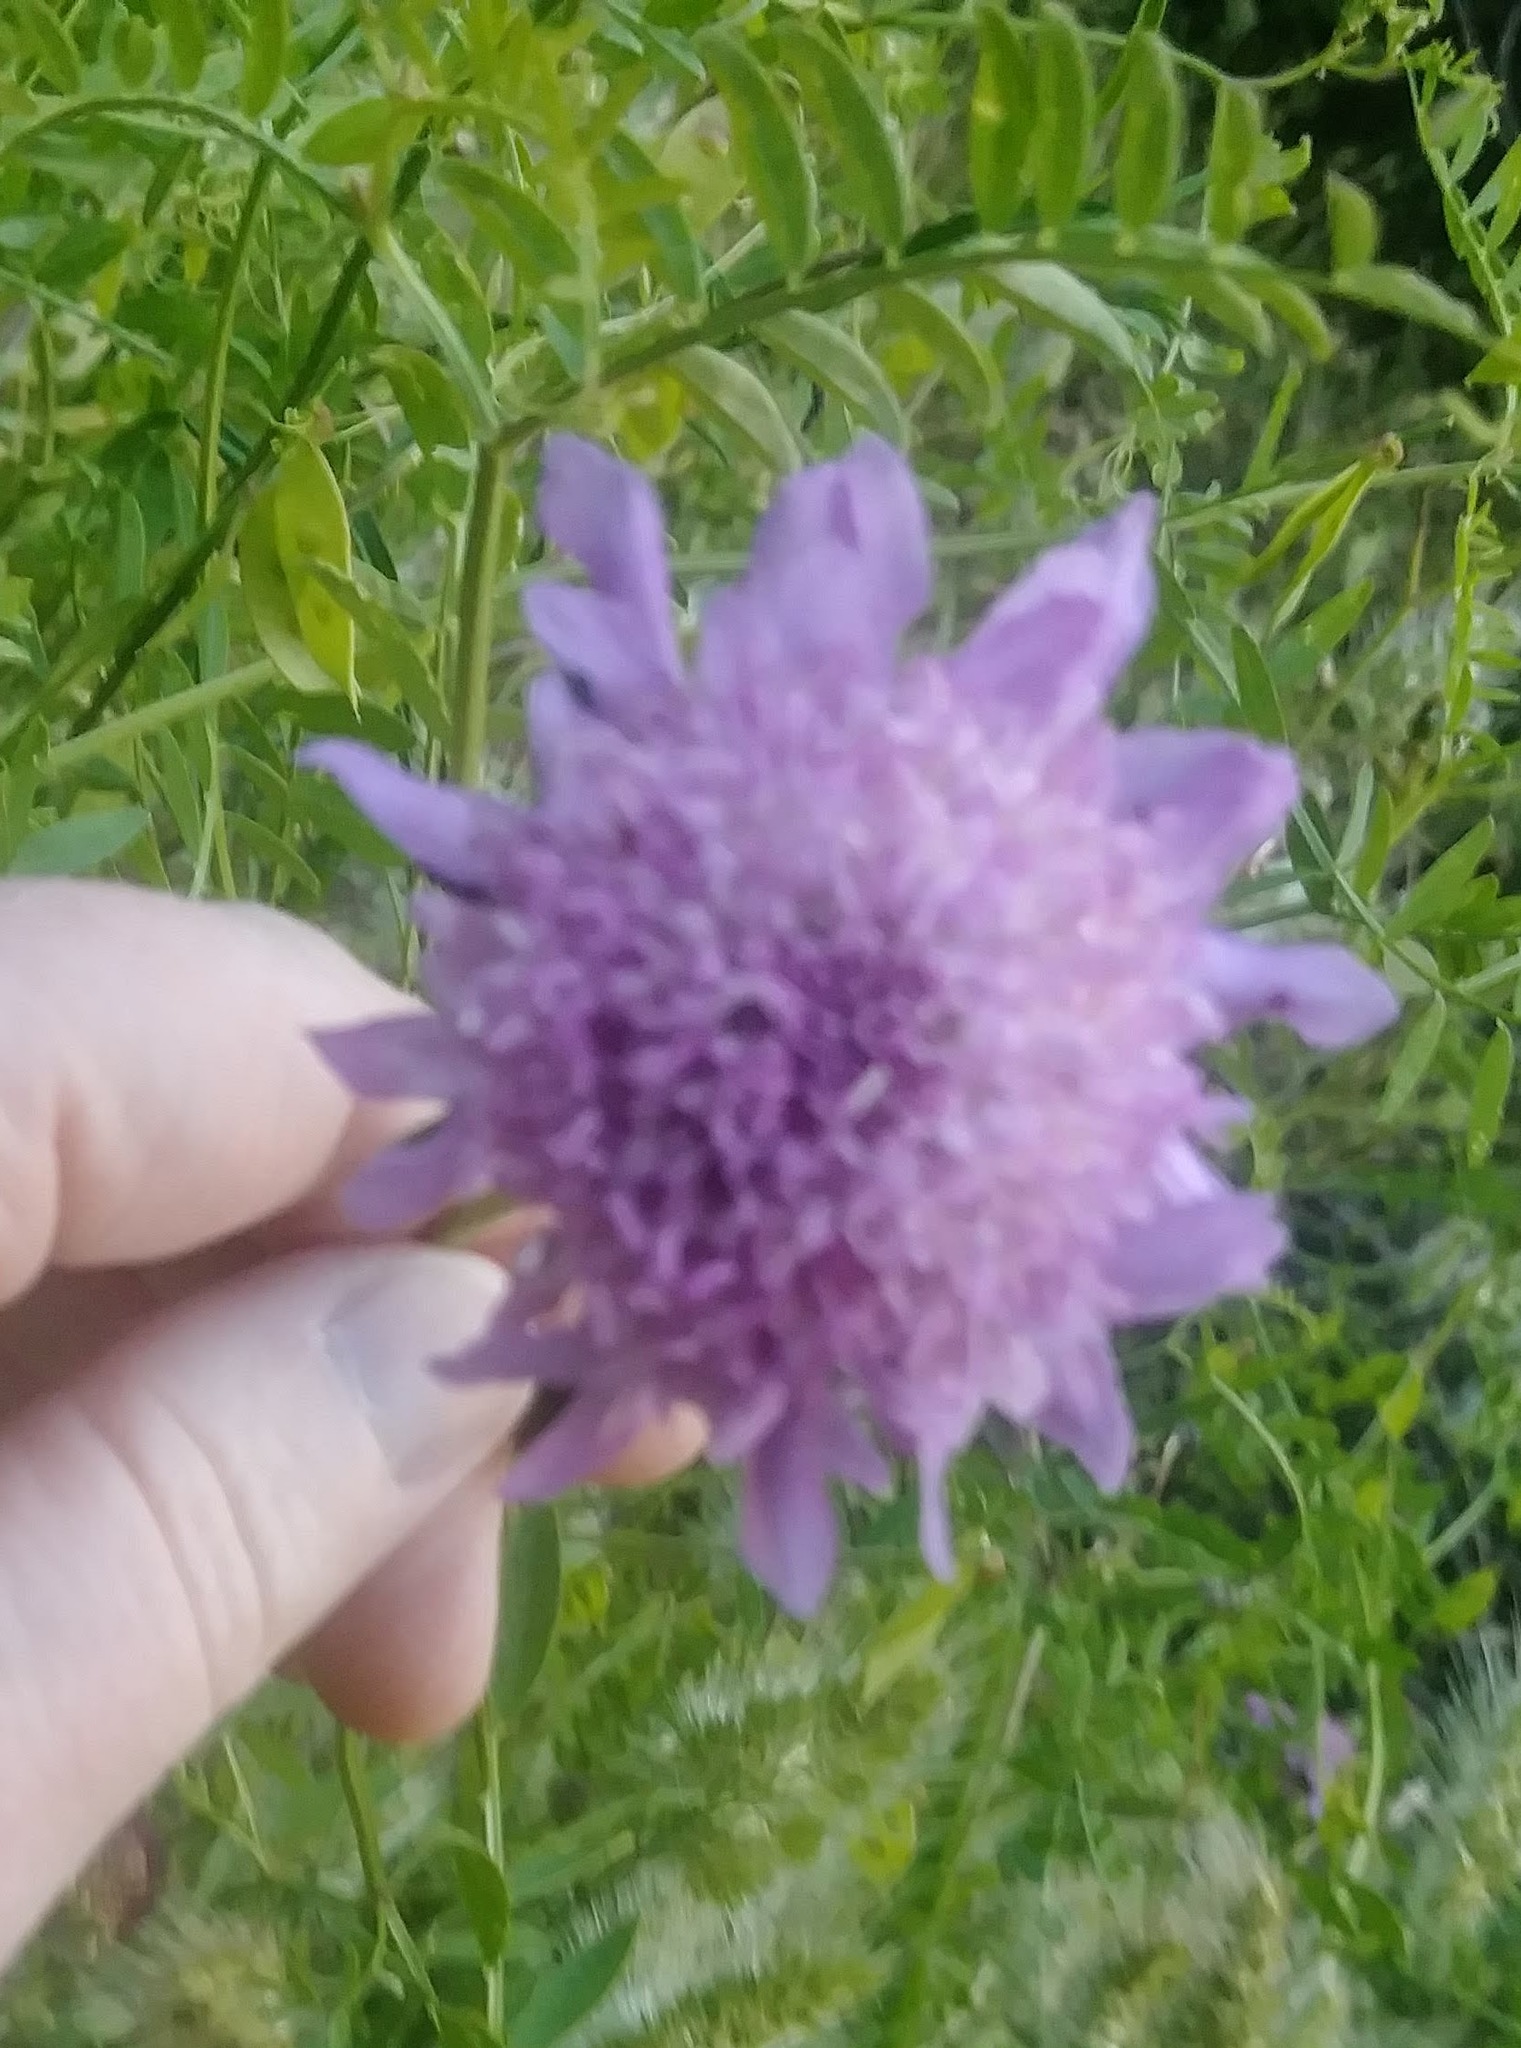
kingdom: Plantae
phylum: Tracheophyta
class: Magnoliopsida
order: Dipsacales
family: Caprifoliaceae
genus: Sixalix
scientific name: Sixalix atropurpurea
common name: Sweet scabious
